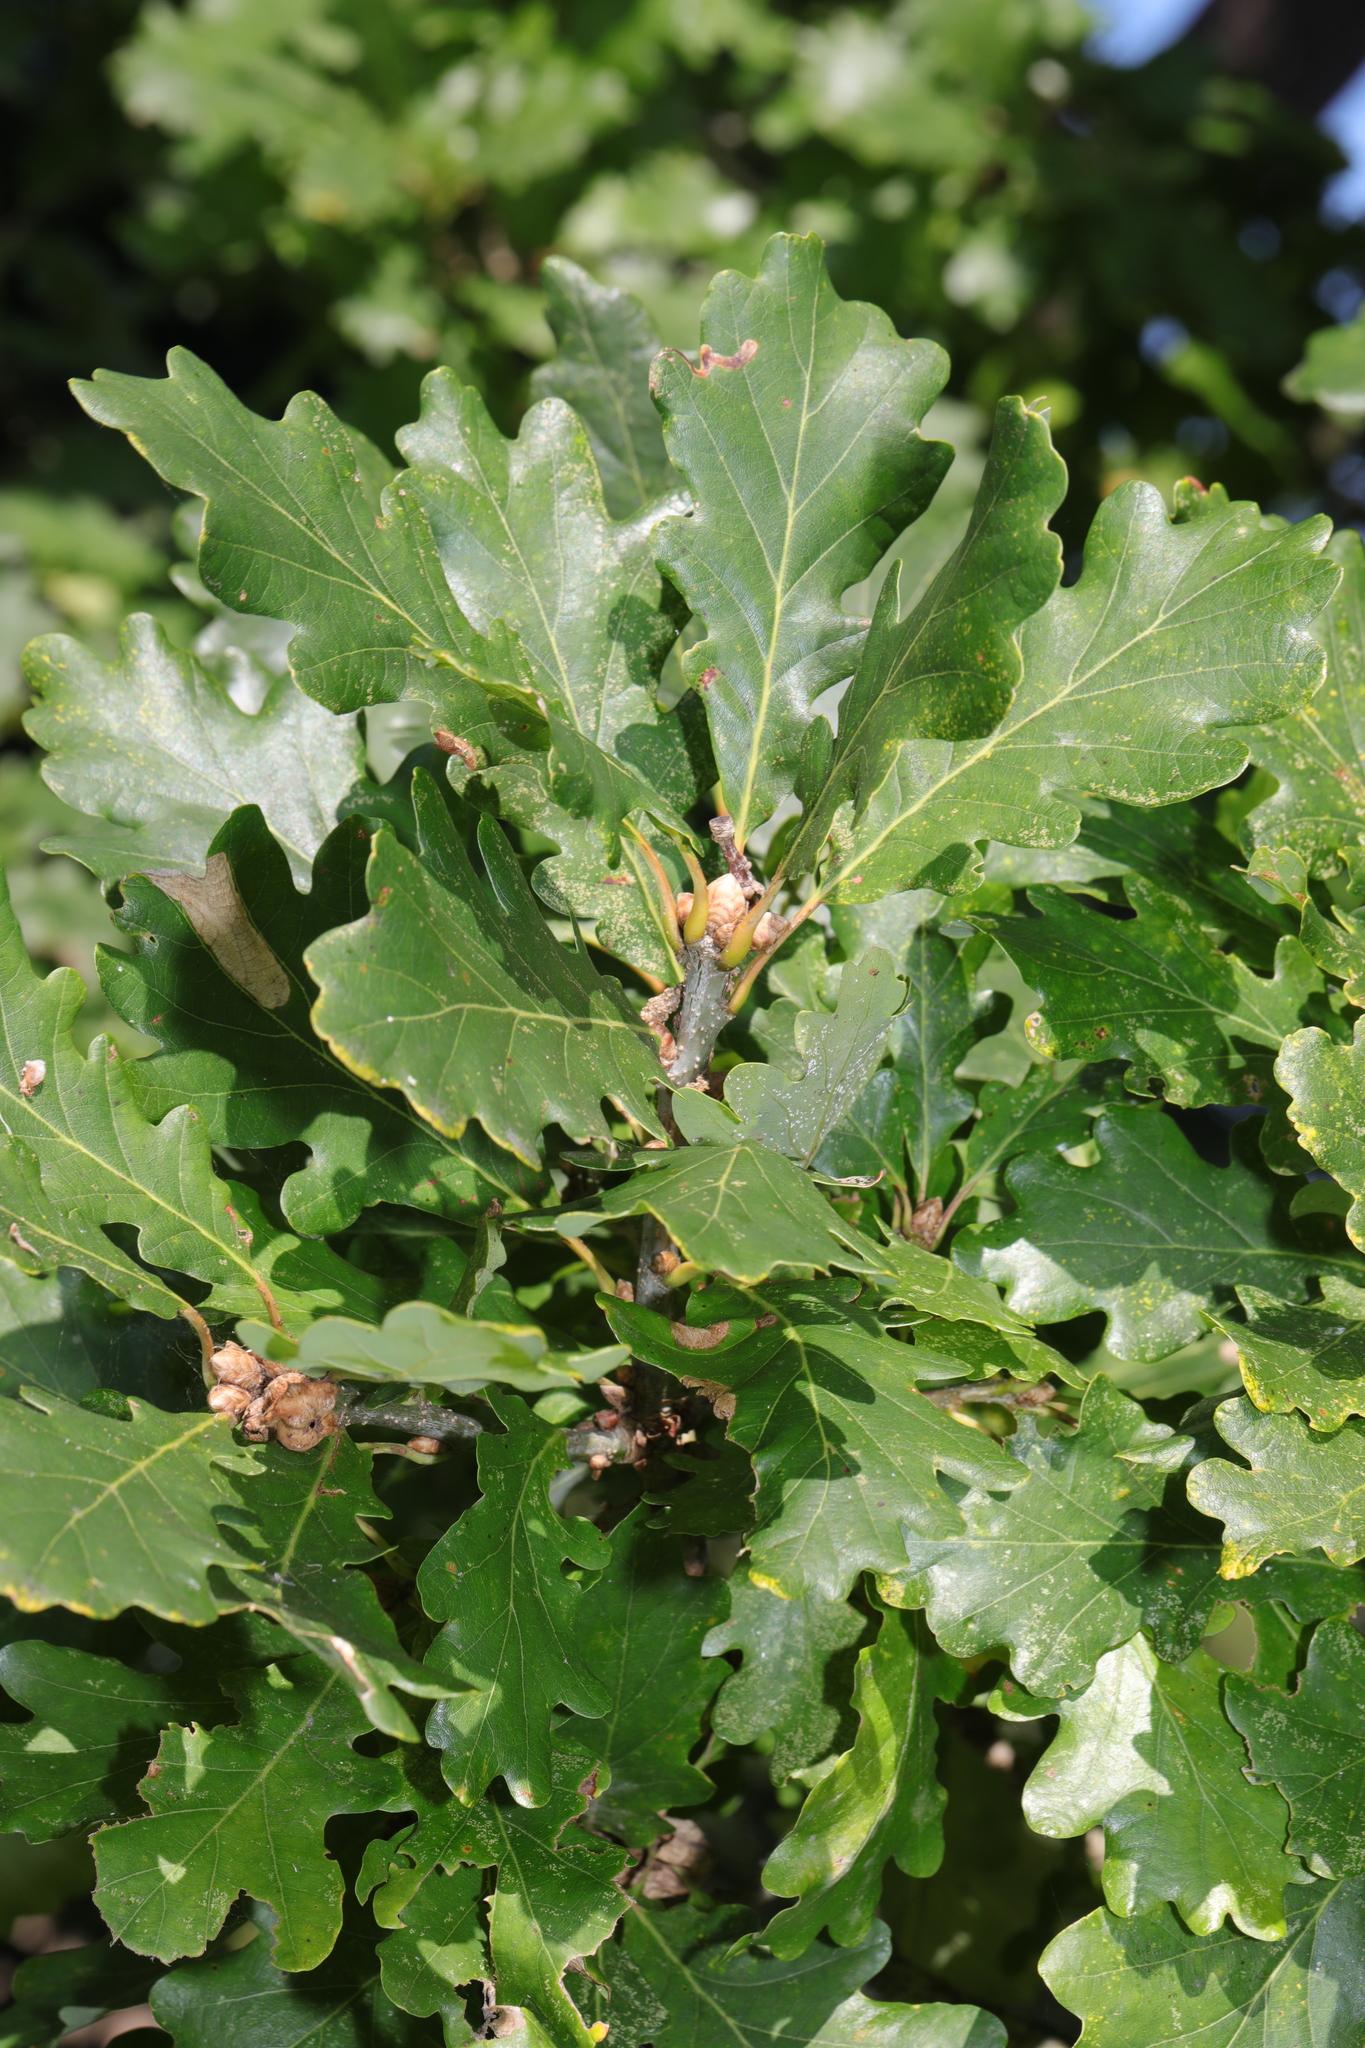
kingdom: Plantae
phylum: Tracheophyta
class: Magnoliopsida
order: Fagales
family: Fagaceae
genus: Quercus
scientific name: Quercus robur
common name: Pedunculate oak
